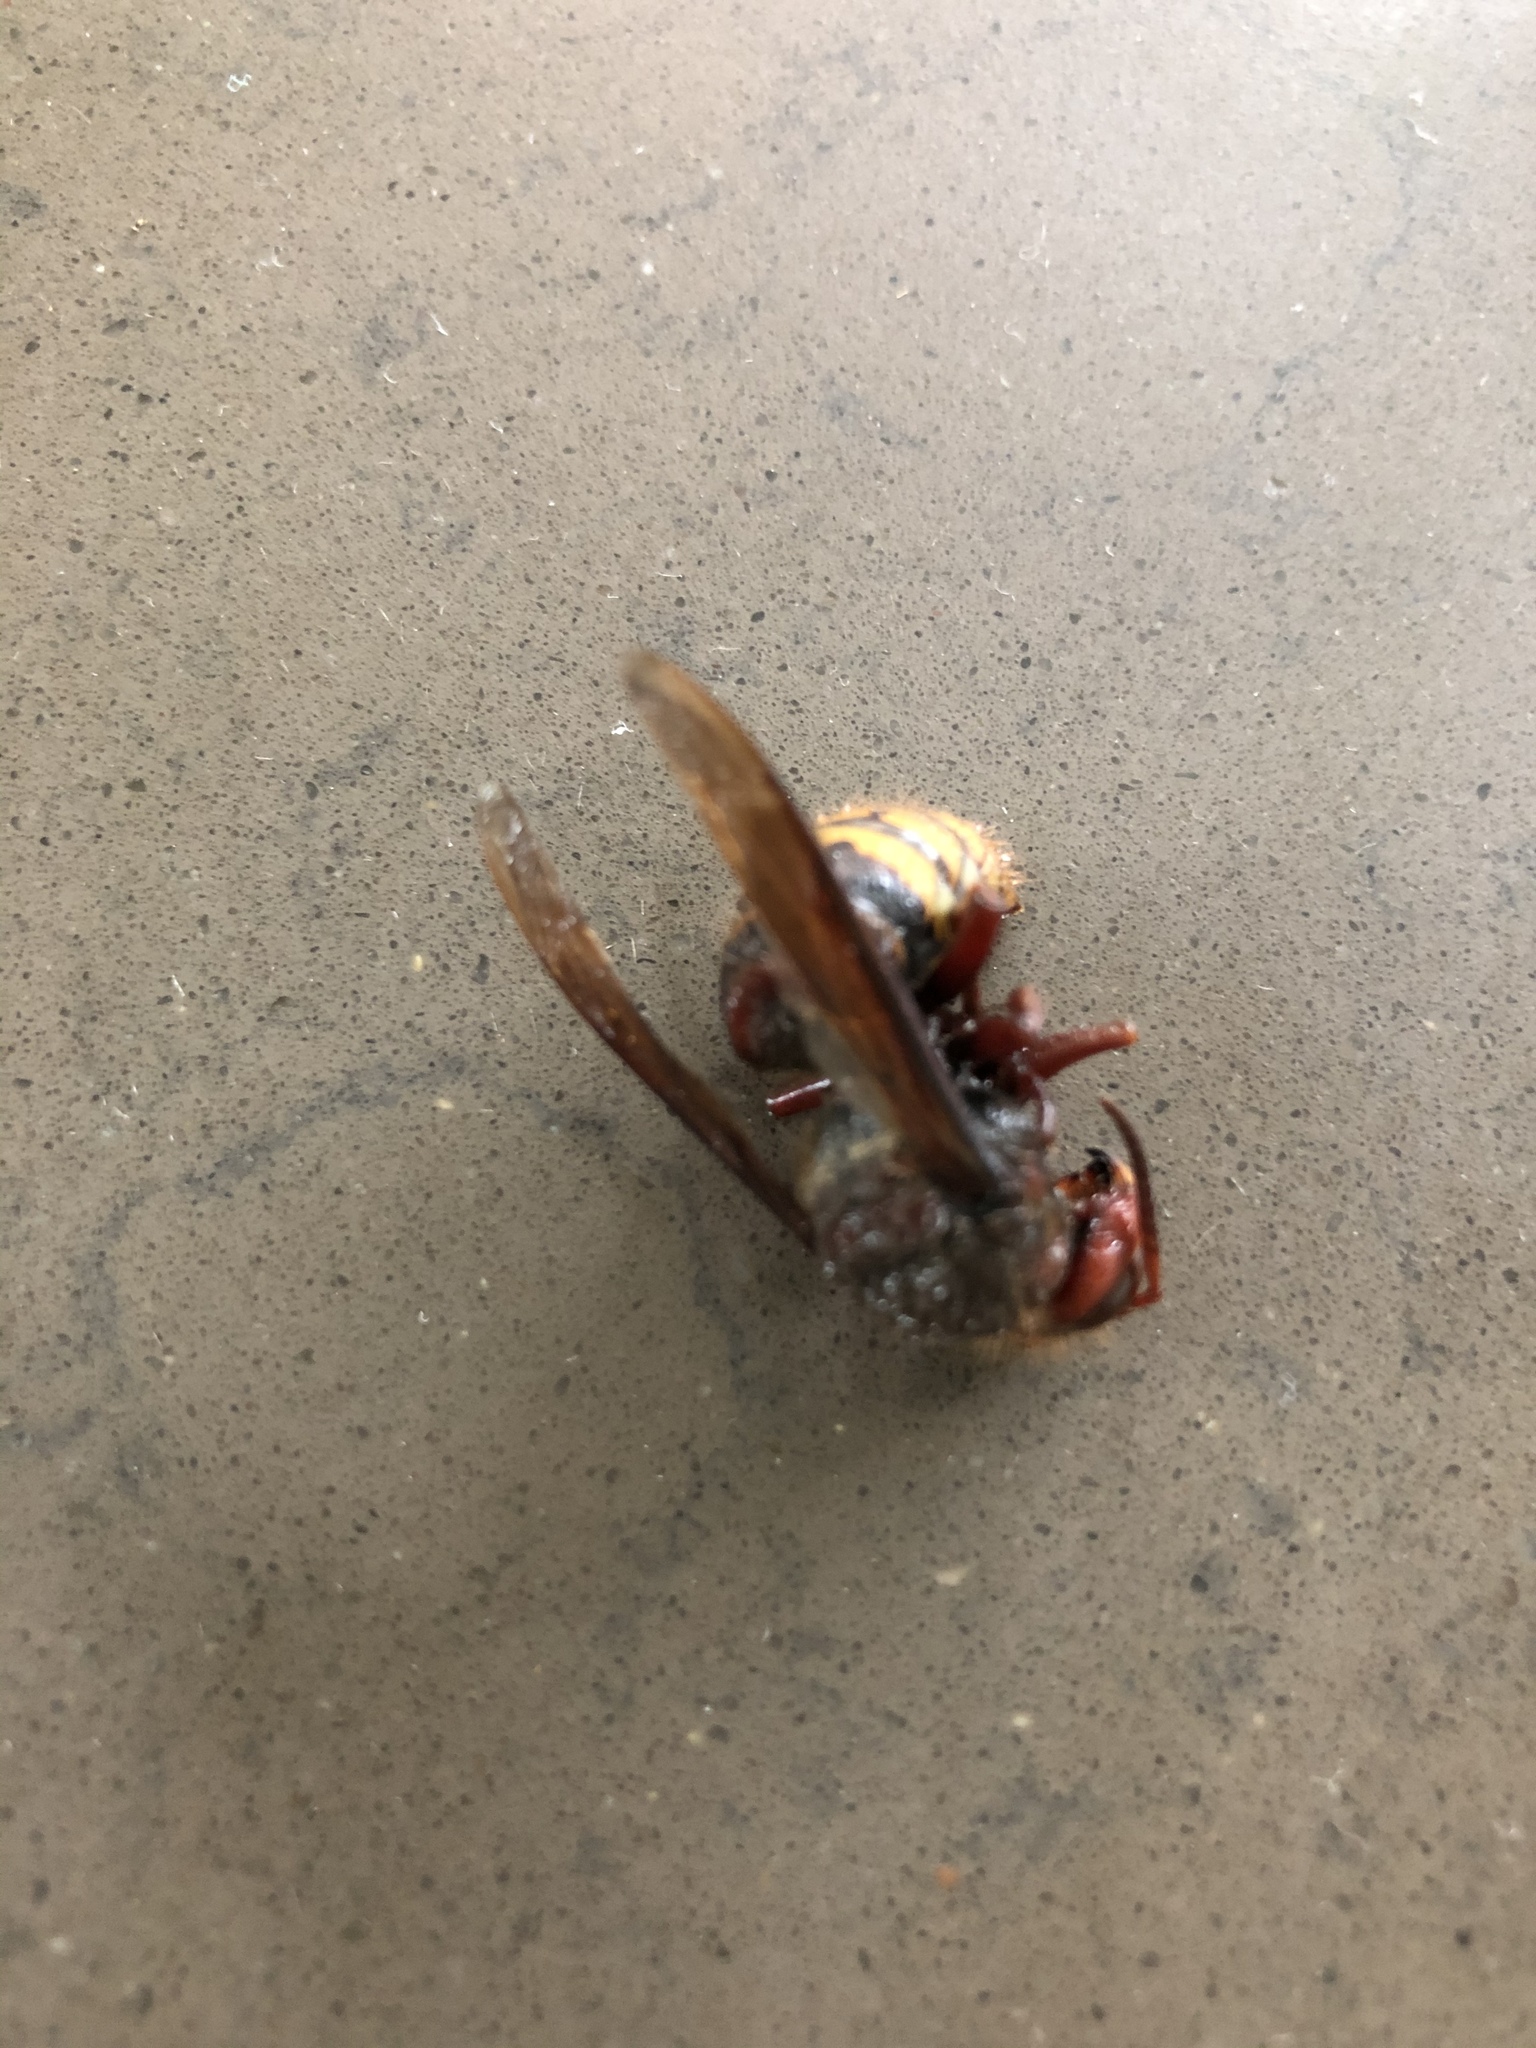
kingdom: Animalia
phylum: Arthropoda
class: Insecta
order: Hymenoptera
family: Vespidae
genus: Vespa
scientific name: Vespa crabro
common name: Hornet
